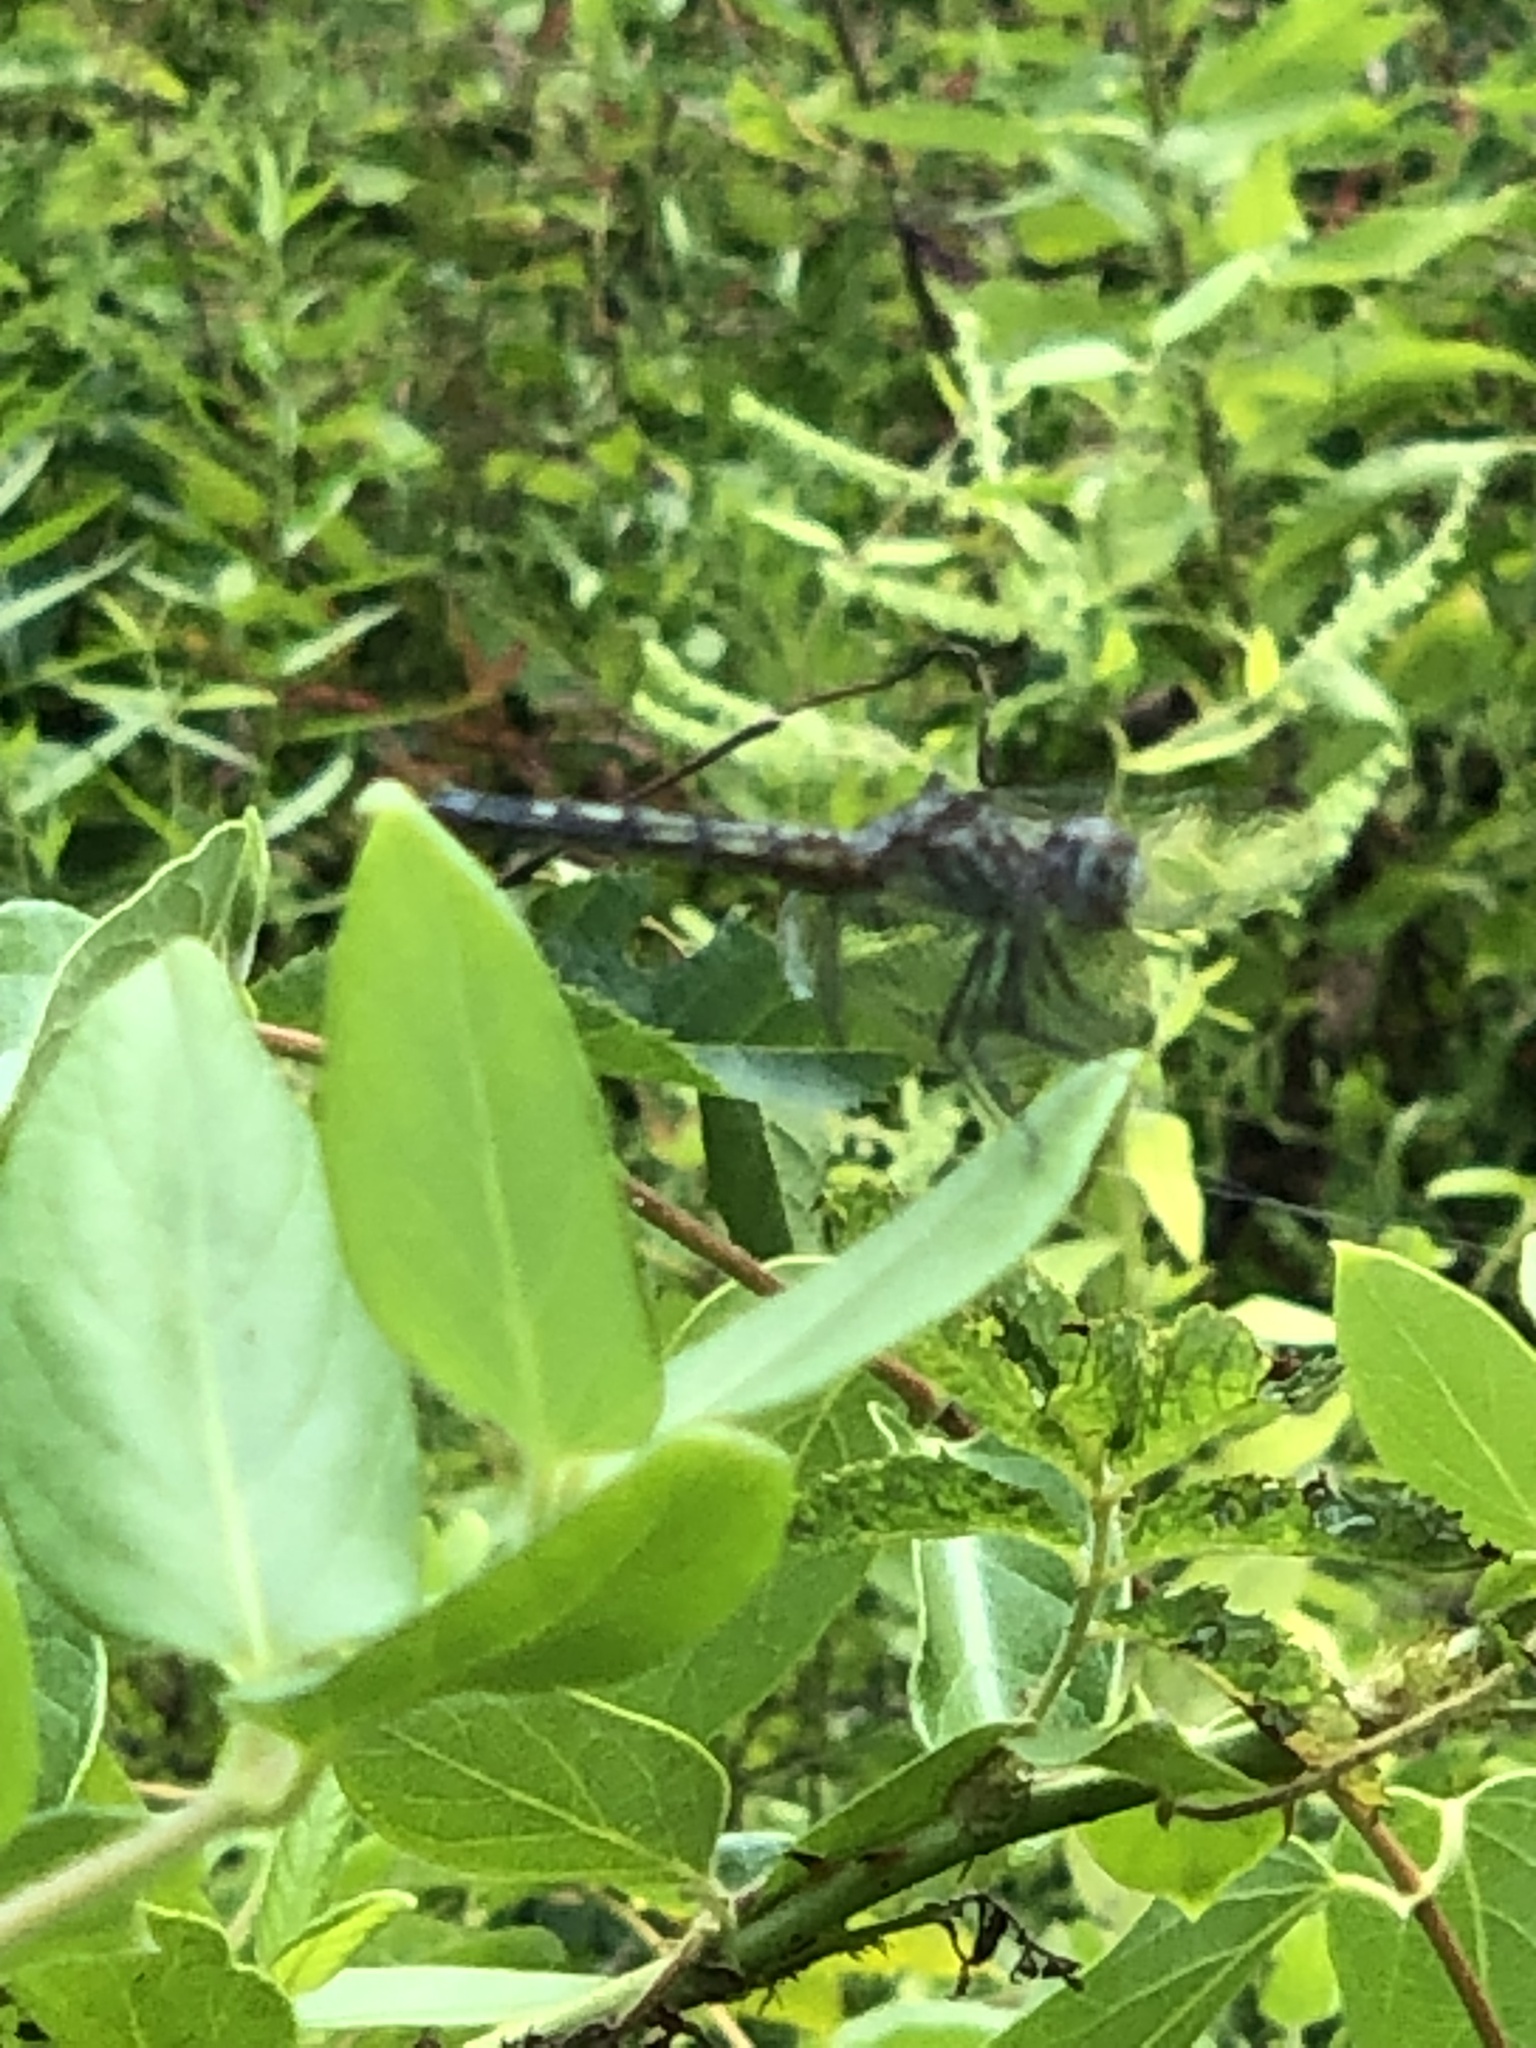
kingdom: Animalia
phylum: Arthropoda
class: Insecta
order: Odonata
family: Libellulidae
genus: Pachydiplax
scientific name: Pachydiplax longipennis
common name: Blue dasher
